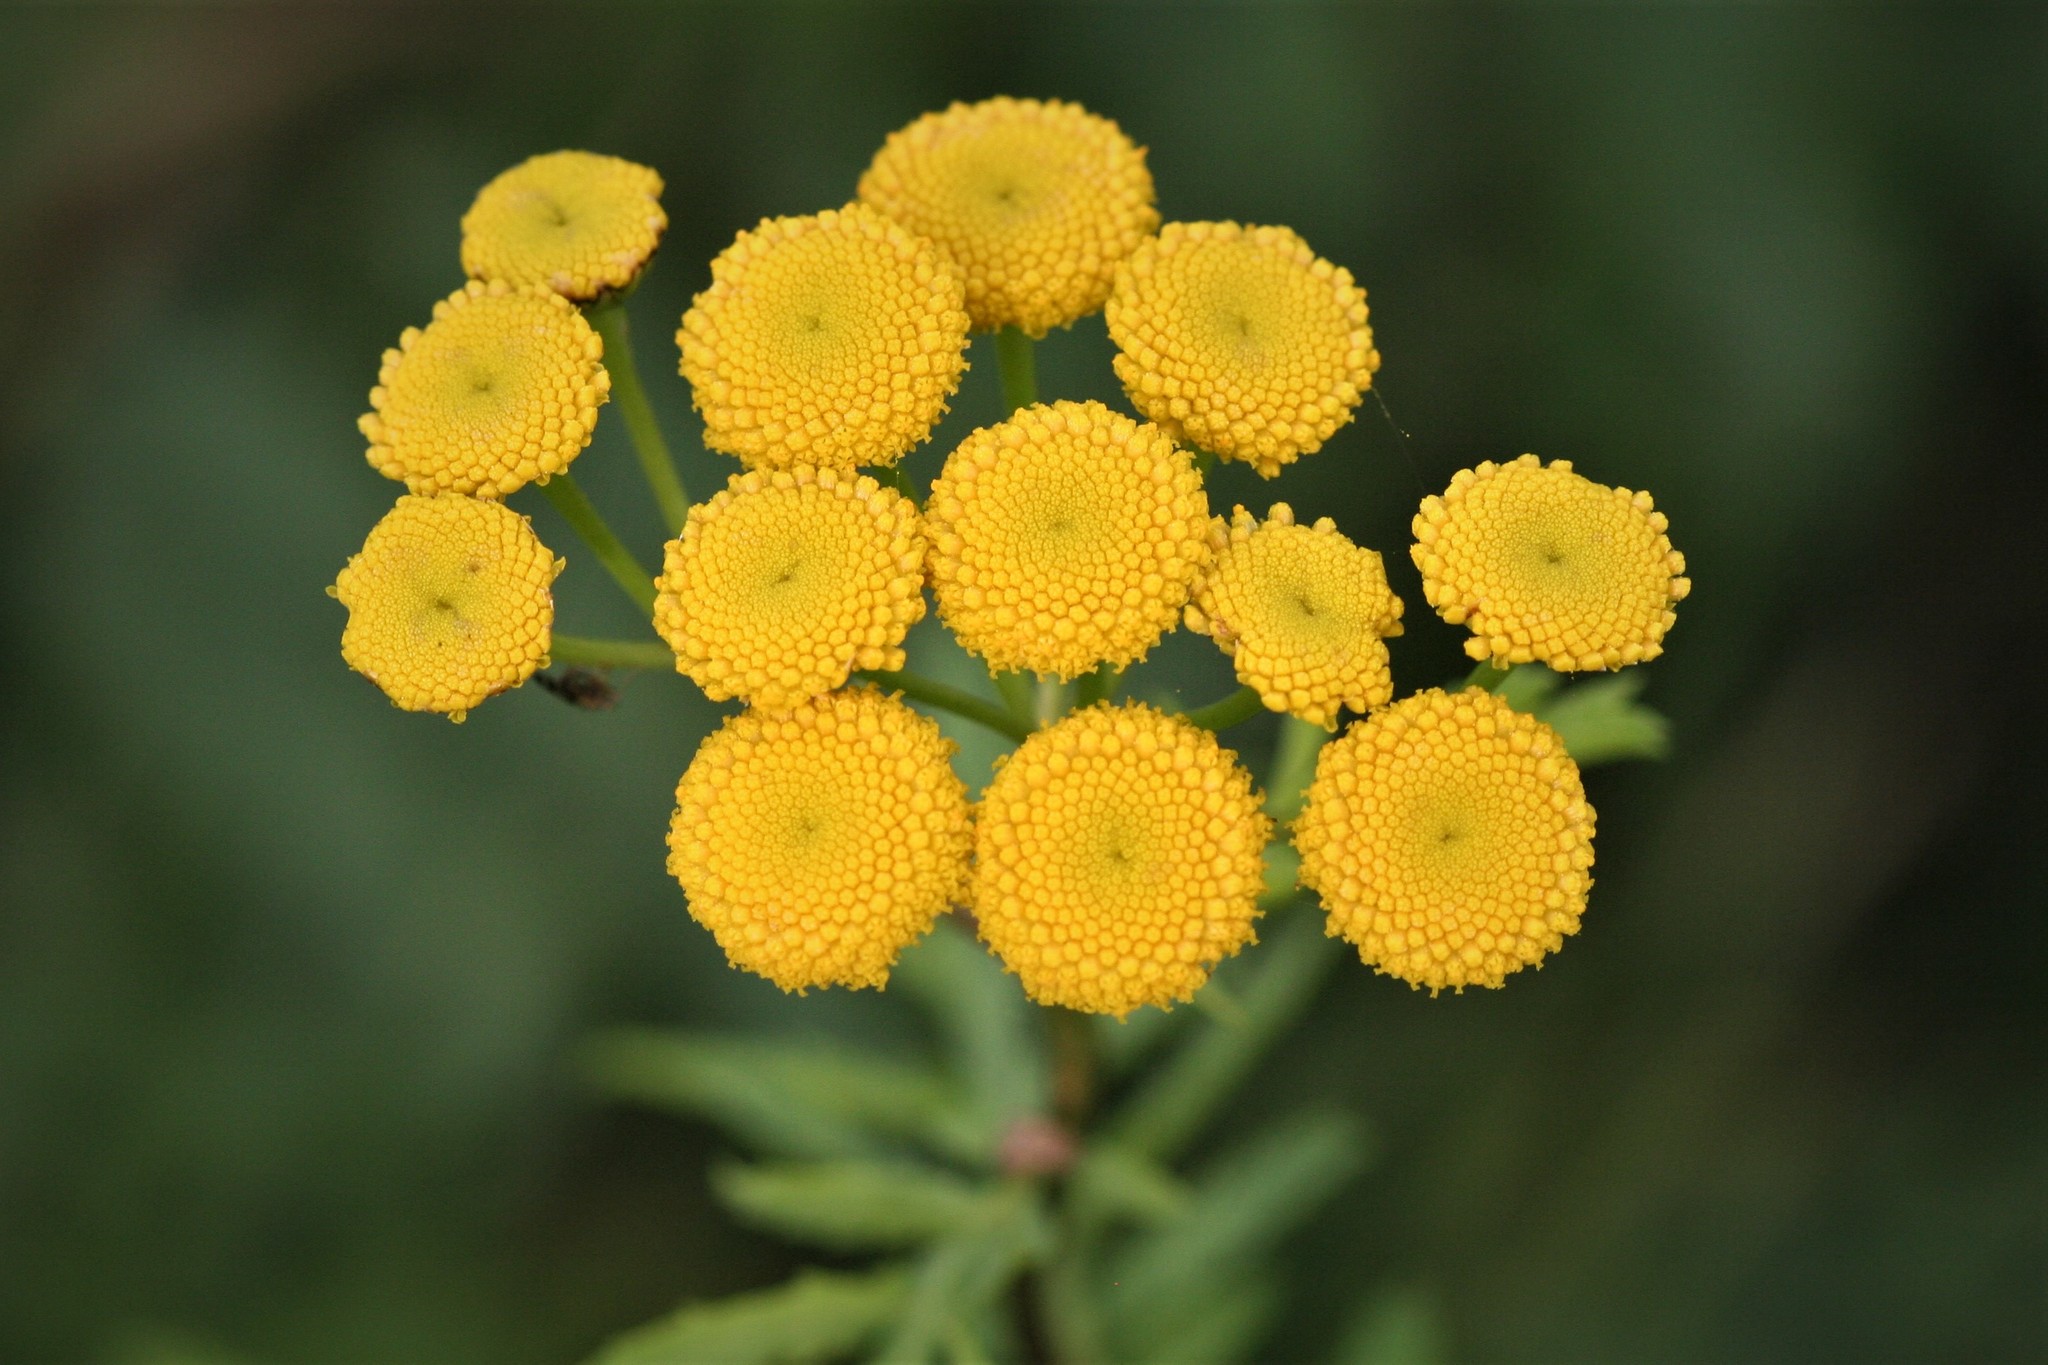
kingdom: Plantae
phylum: Tracheophyta
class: Magnoliopsida
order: Asterales
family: Asteraceae
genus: Tanacetum
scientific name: Tanacetum vulgare
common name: Common tansy
